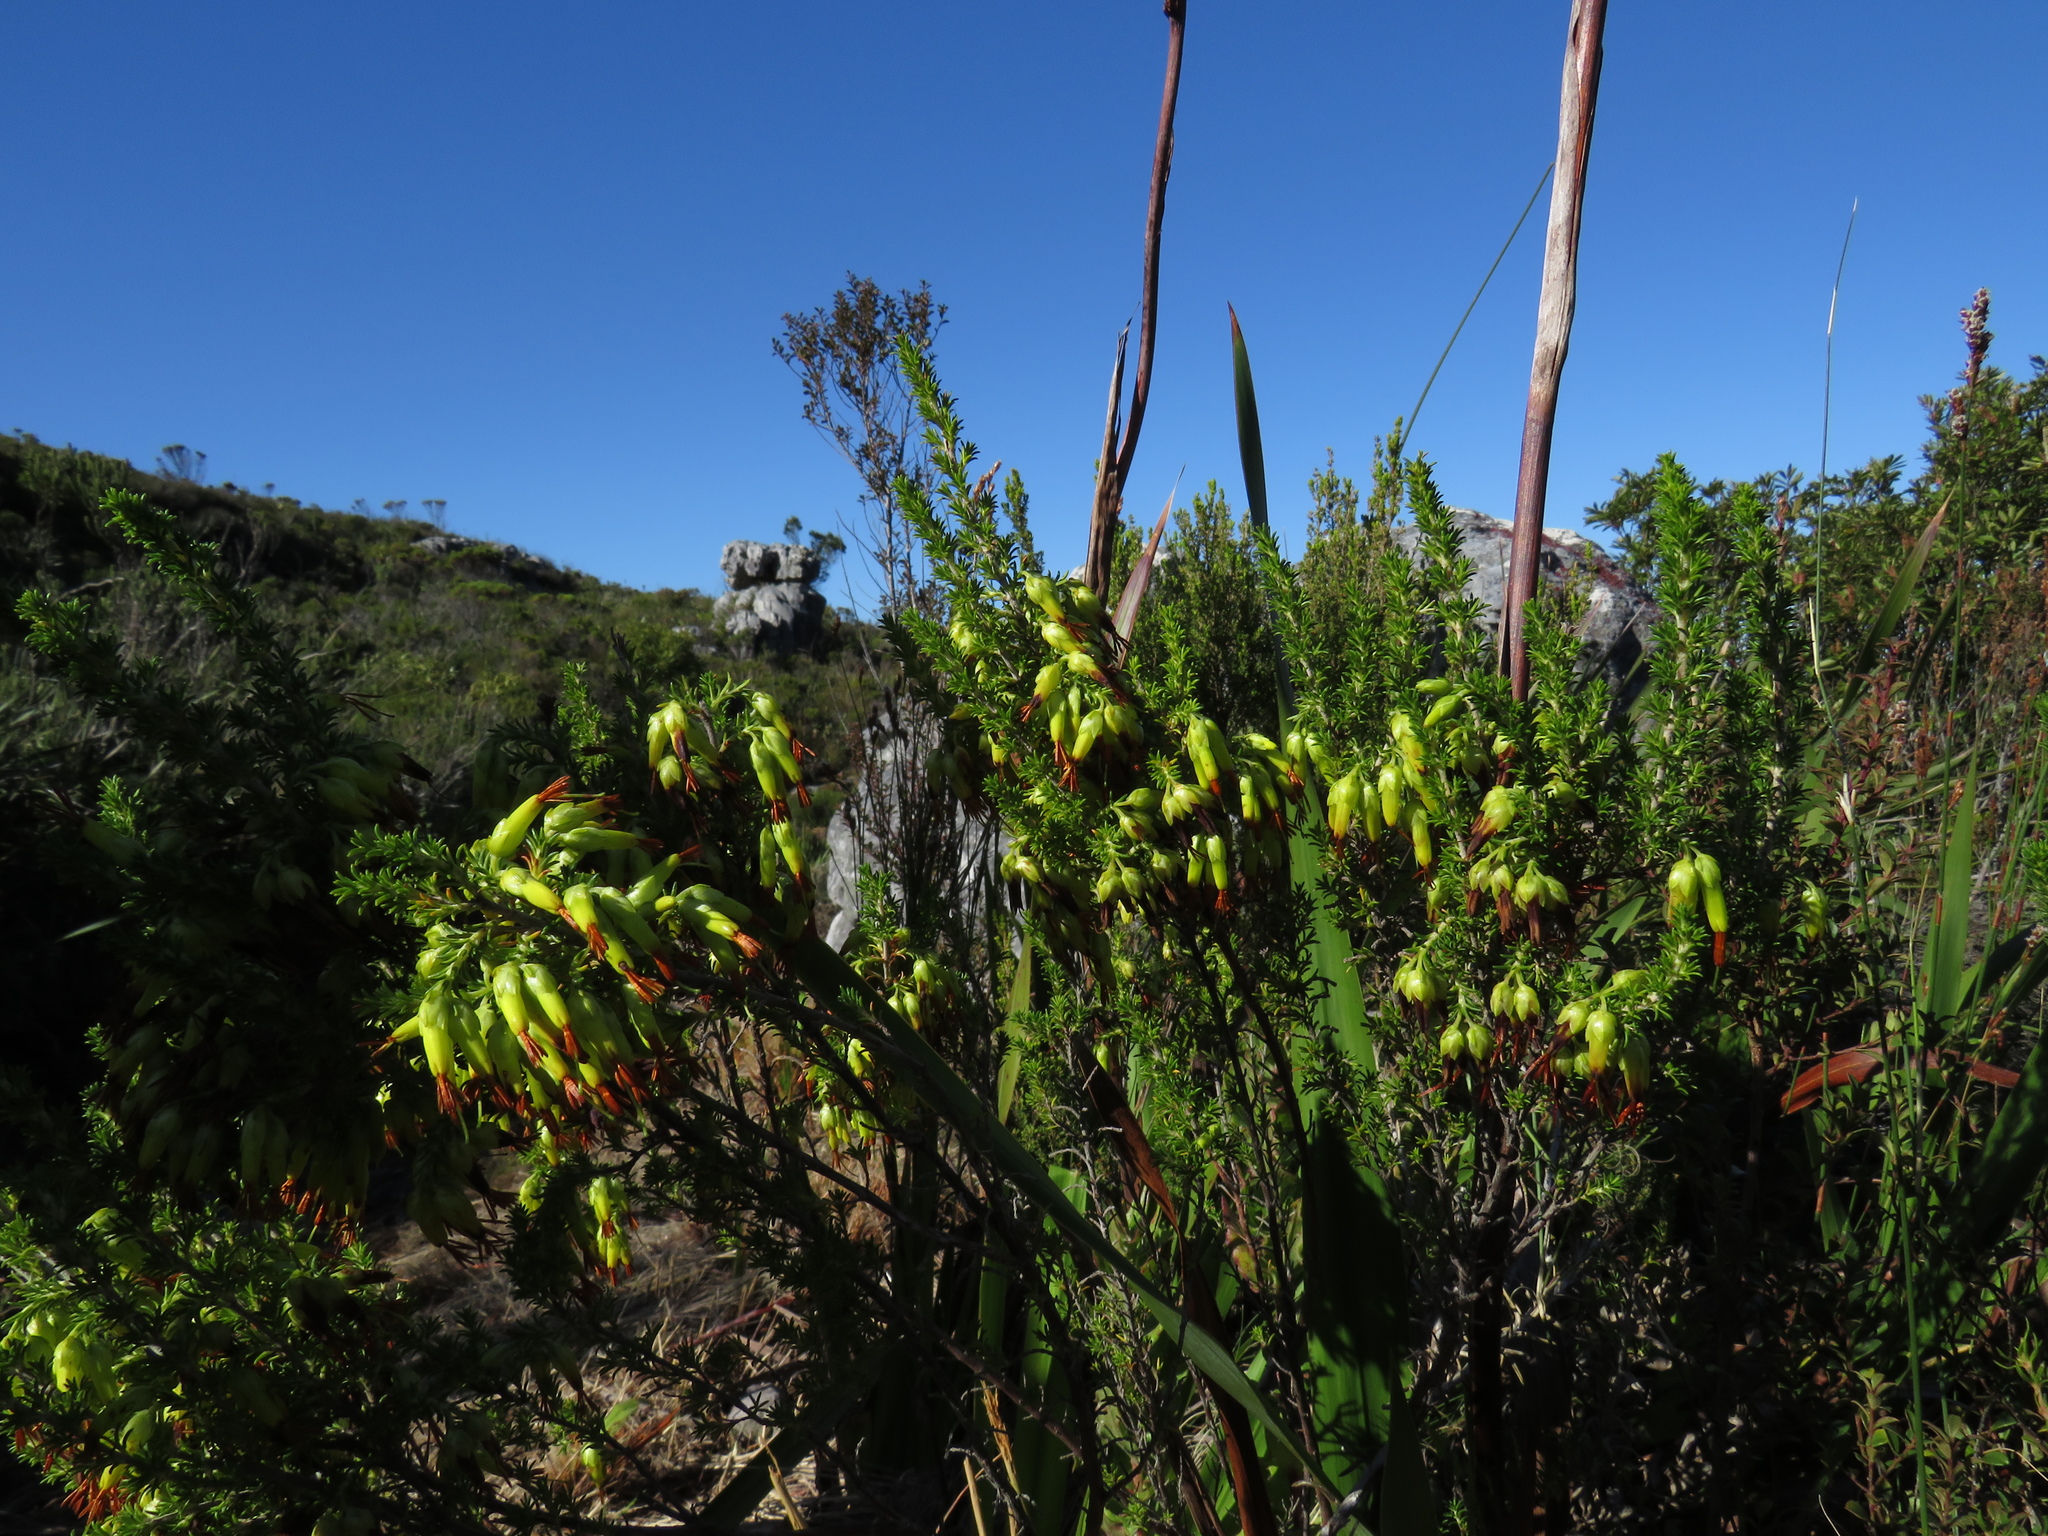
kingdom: Plantae
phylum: Tracheophyta
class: Magnoliopsida
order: Ericales
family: Ericaceae
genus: Erica
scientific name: Erica coccinea
